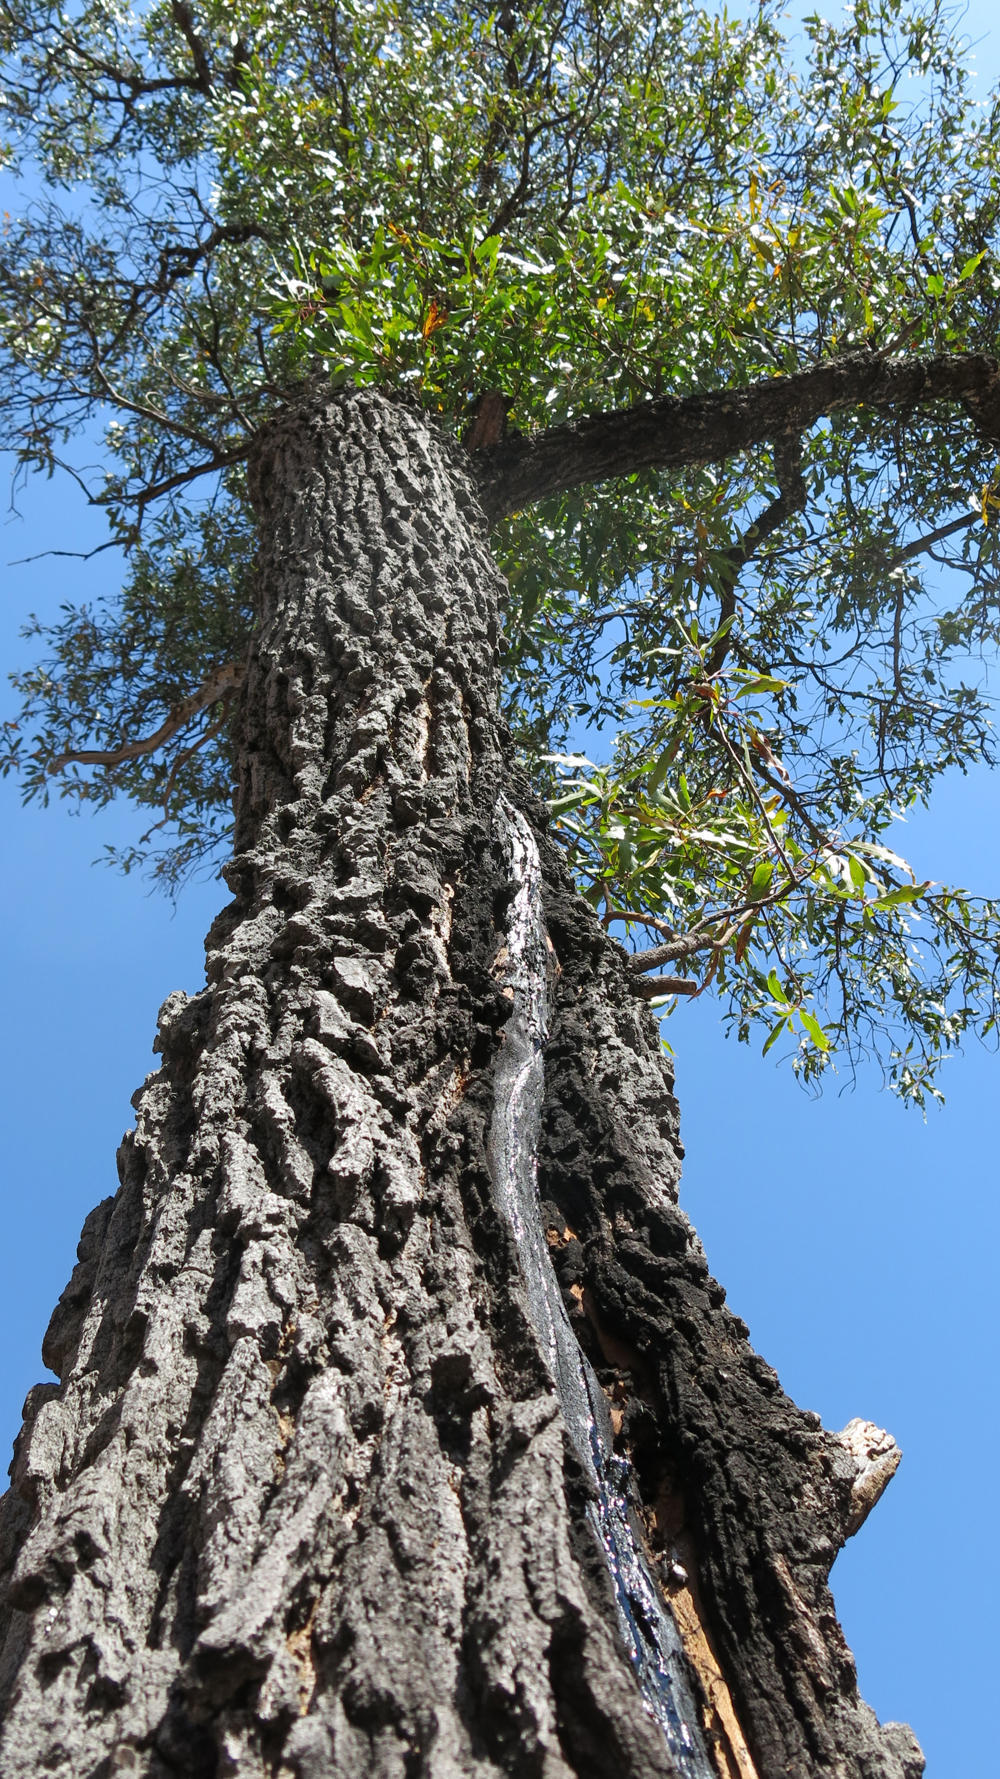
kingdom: Plantae
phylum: Tracheophyta
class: Magnoliopsida
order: Proteales
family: Proteaceae
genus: Faurea
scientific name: Faurea saligna
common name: African bean
